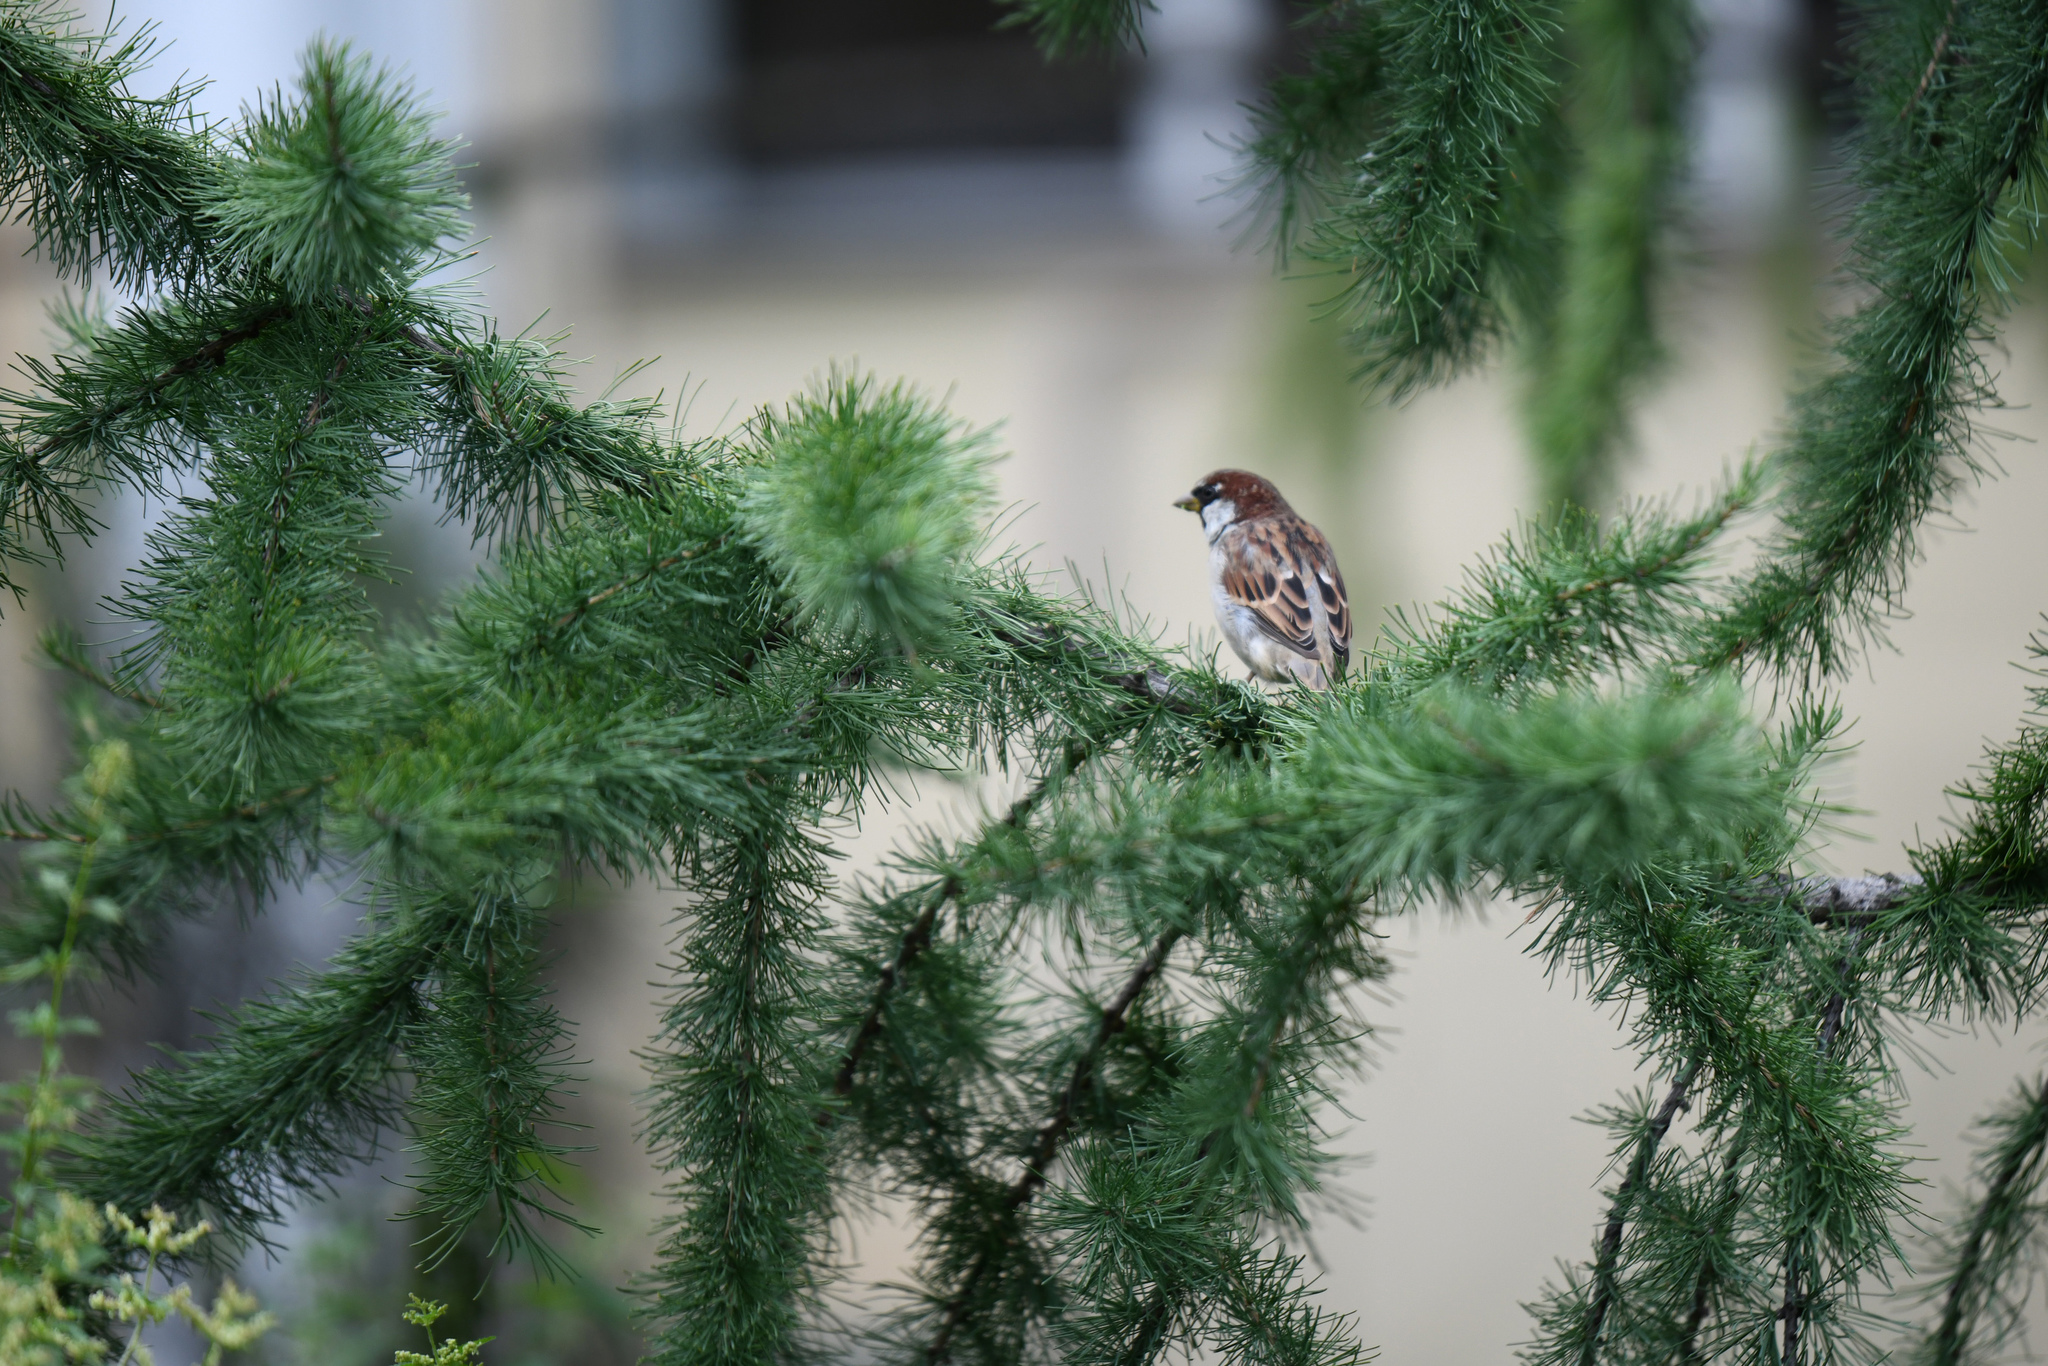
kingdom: Animalia
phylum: Chordata
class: Aves
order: Passeriformes
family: Passeridae
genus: Passer
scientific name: Passer domesticus
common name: House sparrow
